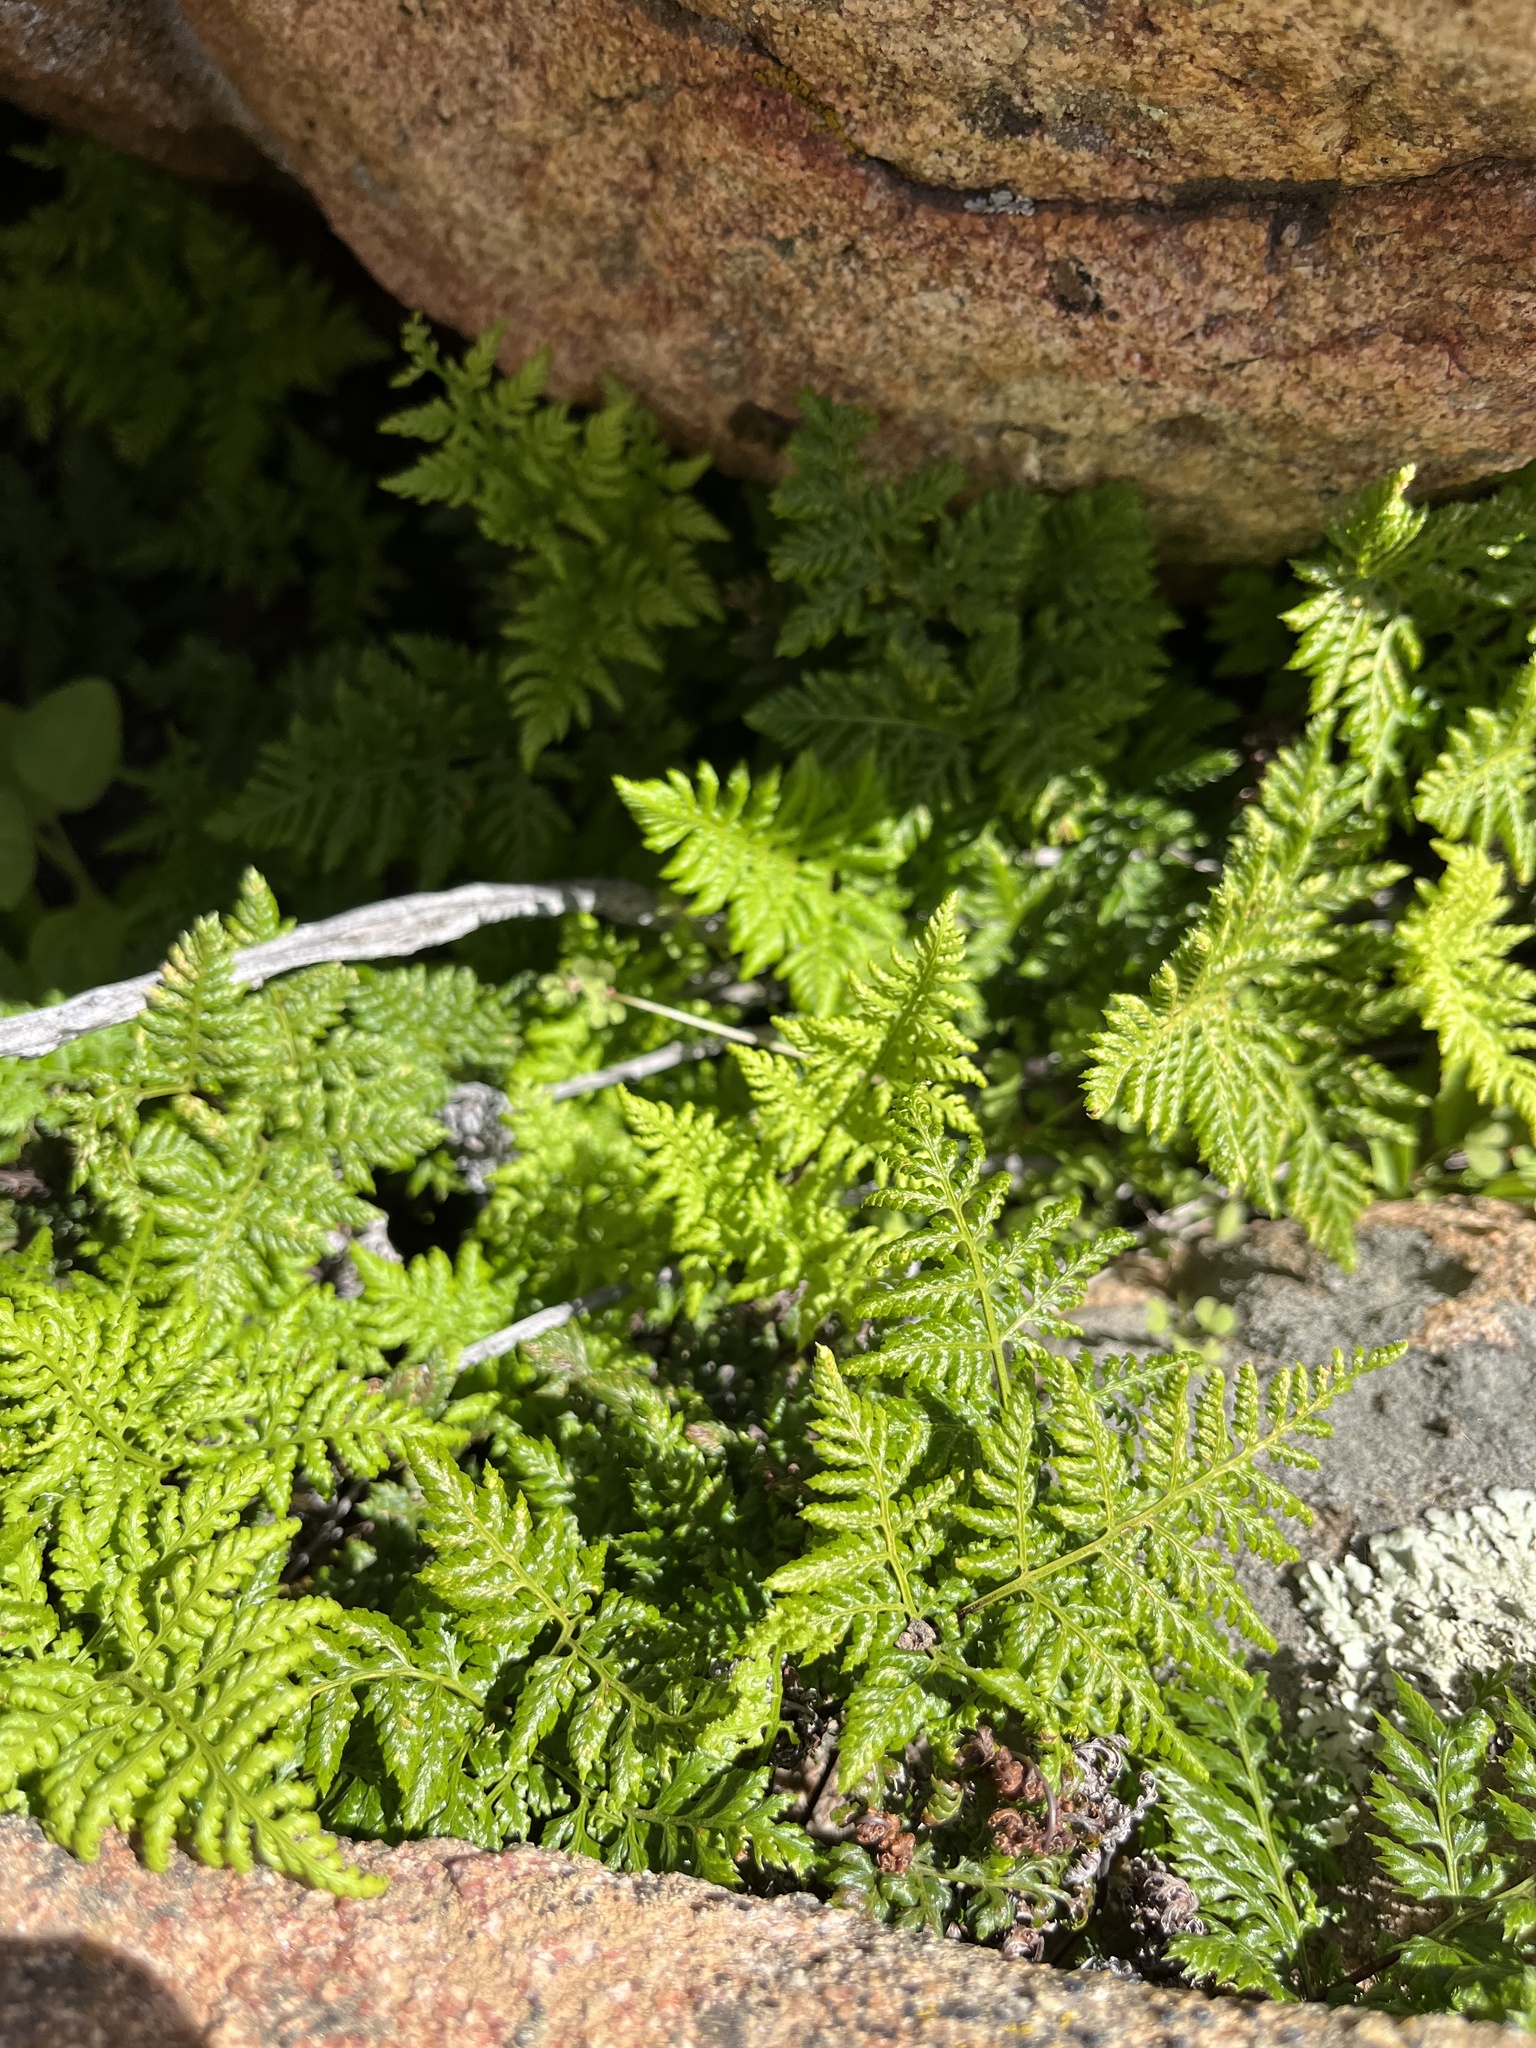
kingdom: Plantae
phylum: Tracheophyta
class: Polypodiopsida
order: Polypodiales
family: Pteridaceae
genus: Aspidotis
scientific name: Aspidotis californica
